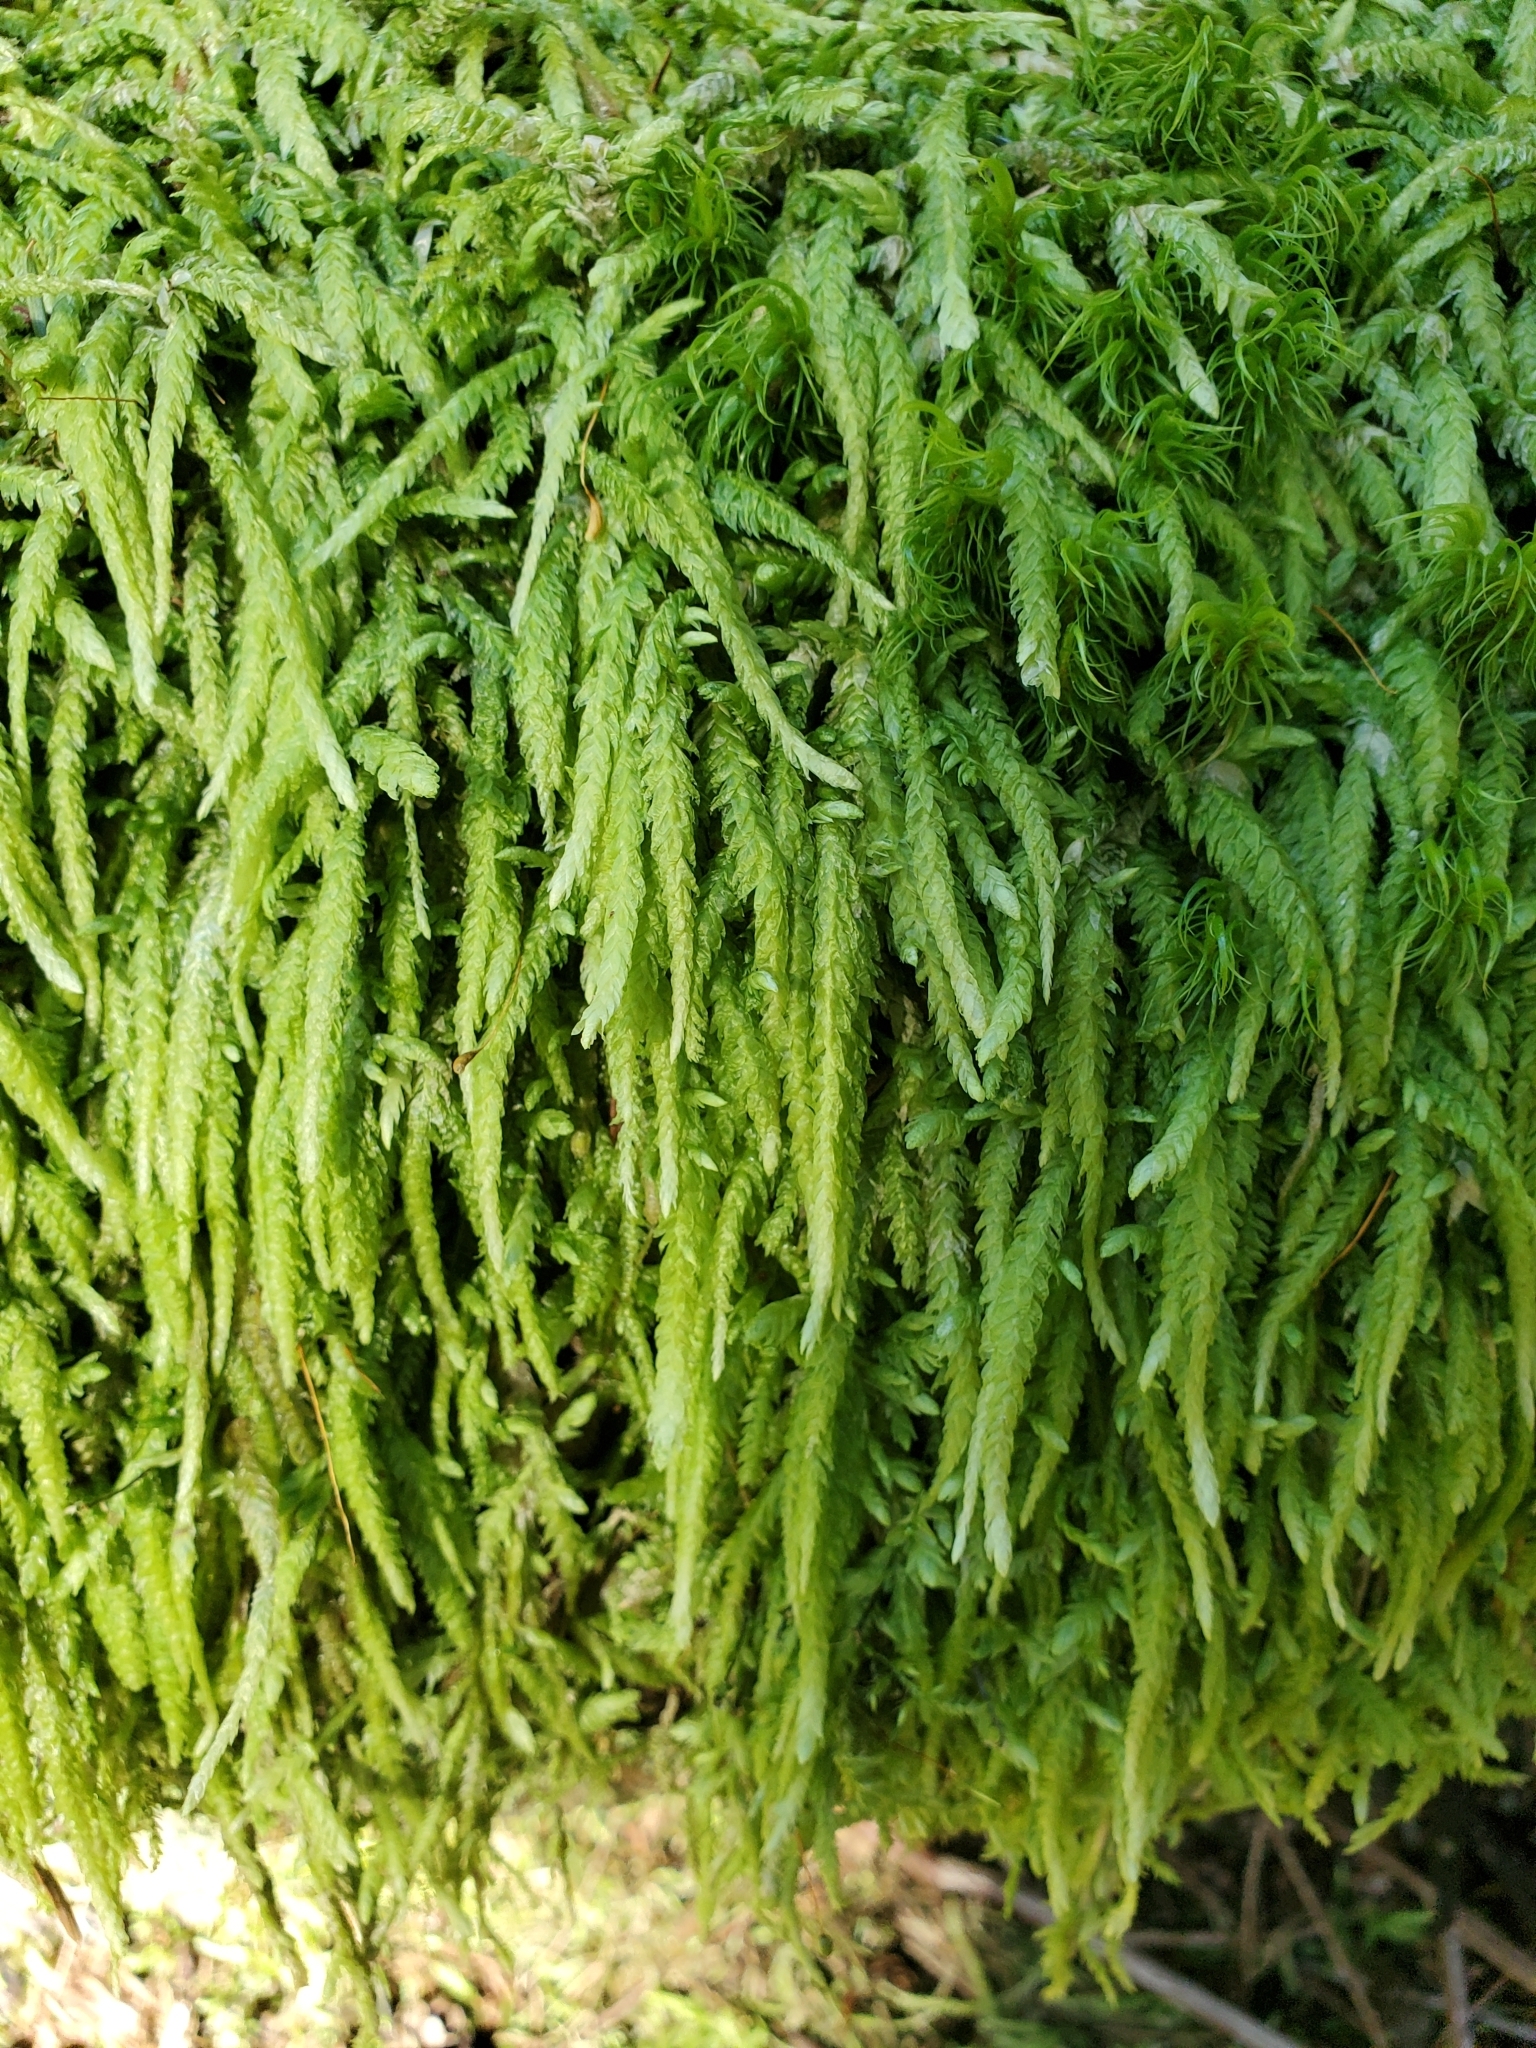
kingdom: Plantae
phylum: Bryophyta
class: Bryopsida
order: Hypnales
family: Plagiotheciaceae
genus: Plagiothecium
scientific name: Plagiothecium undulatum
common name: Waved silk-moss
